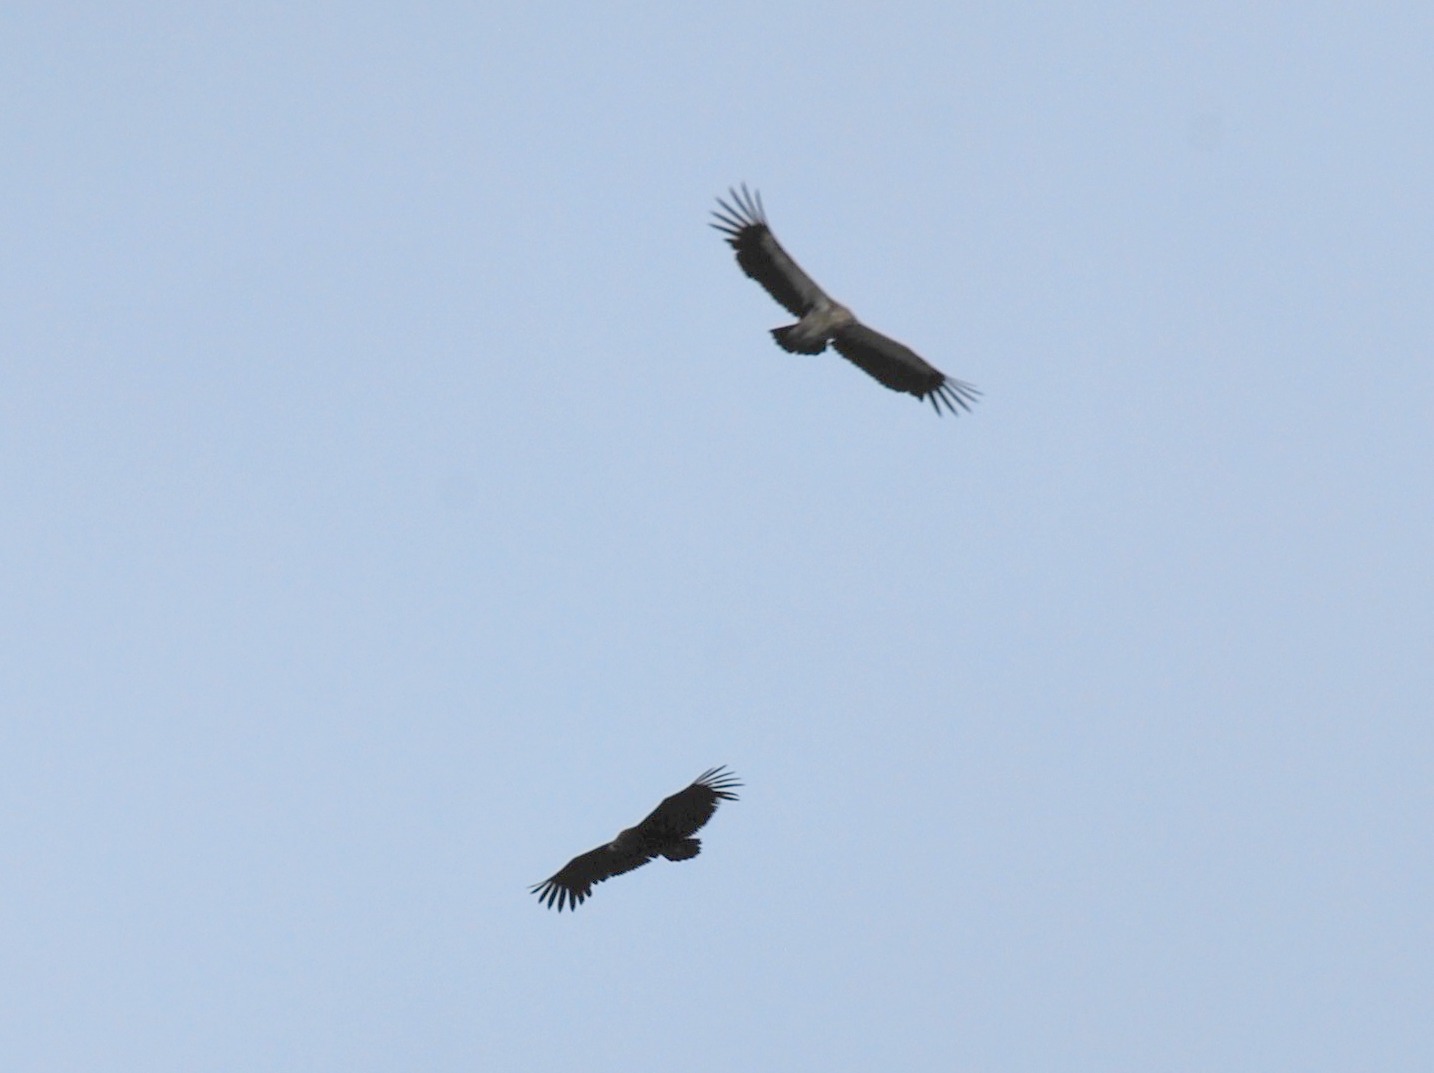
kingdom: Animalia
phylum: Chordata
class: Aves
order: Accipitriformes
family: Accipitridae
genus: Gyps
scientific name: Gyps himalayensis
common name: Himalayan griffon
